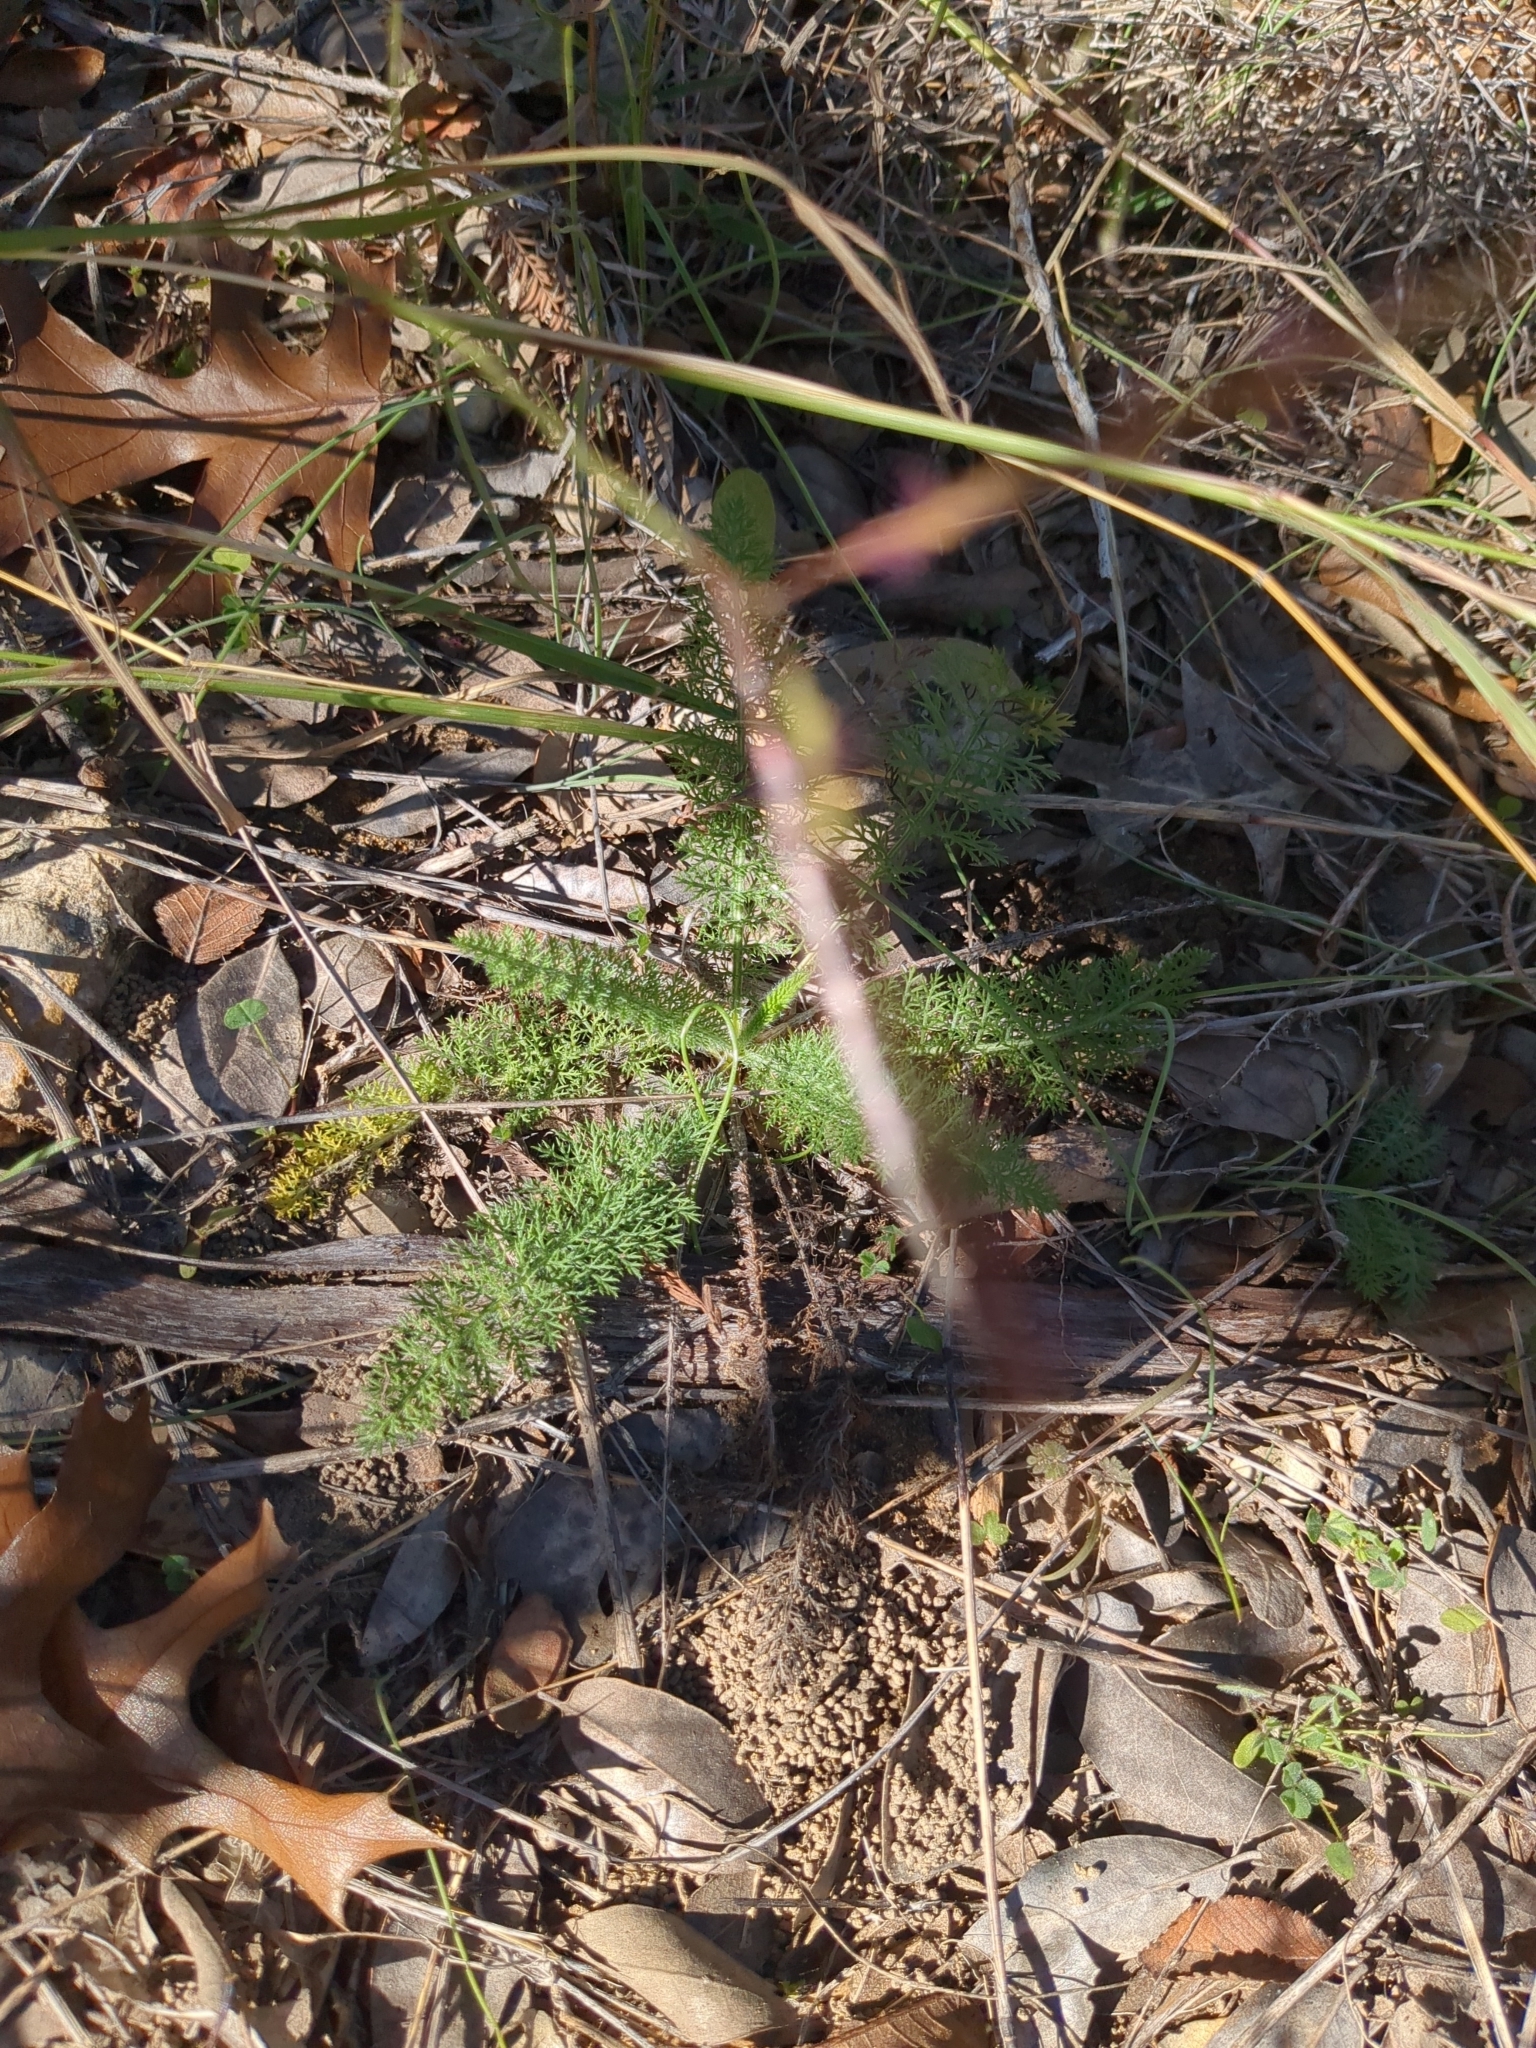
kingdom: Plantae
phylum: Tracheophyta
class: Magnoliopsida
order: Asterales
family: Asteraceae
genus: Achillea
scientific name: Achillea millefolium
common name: Yarrow
